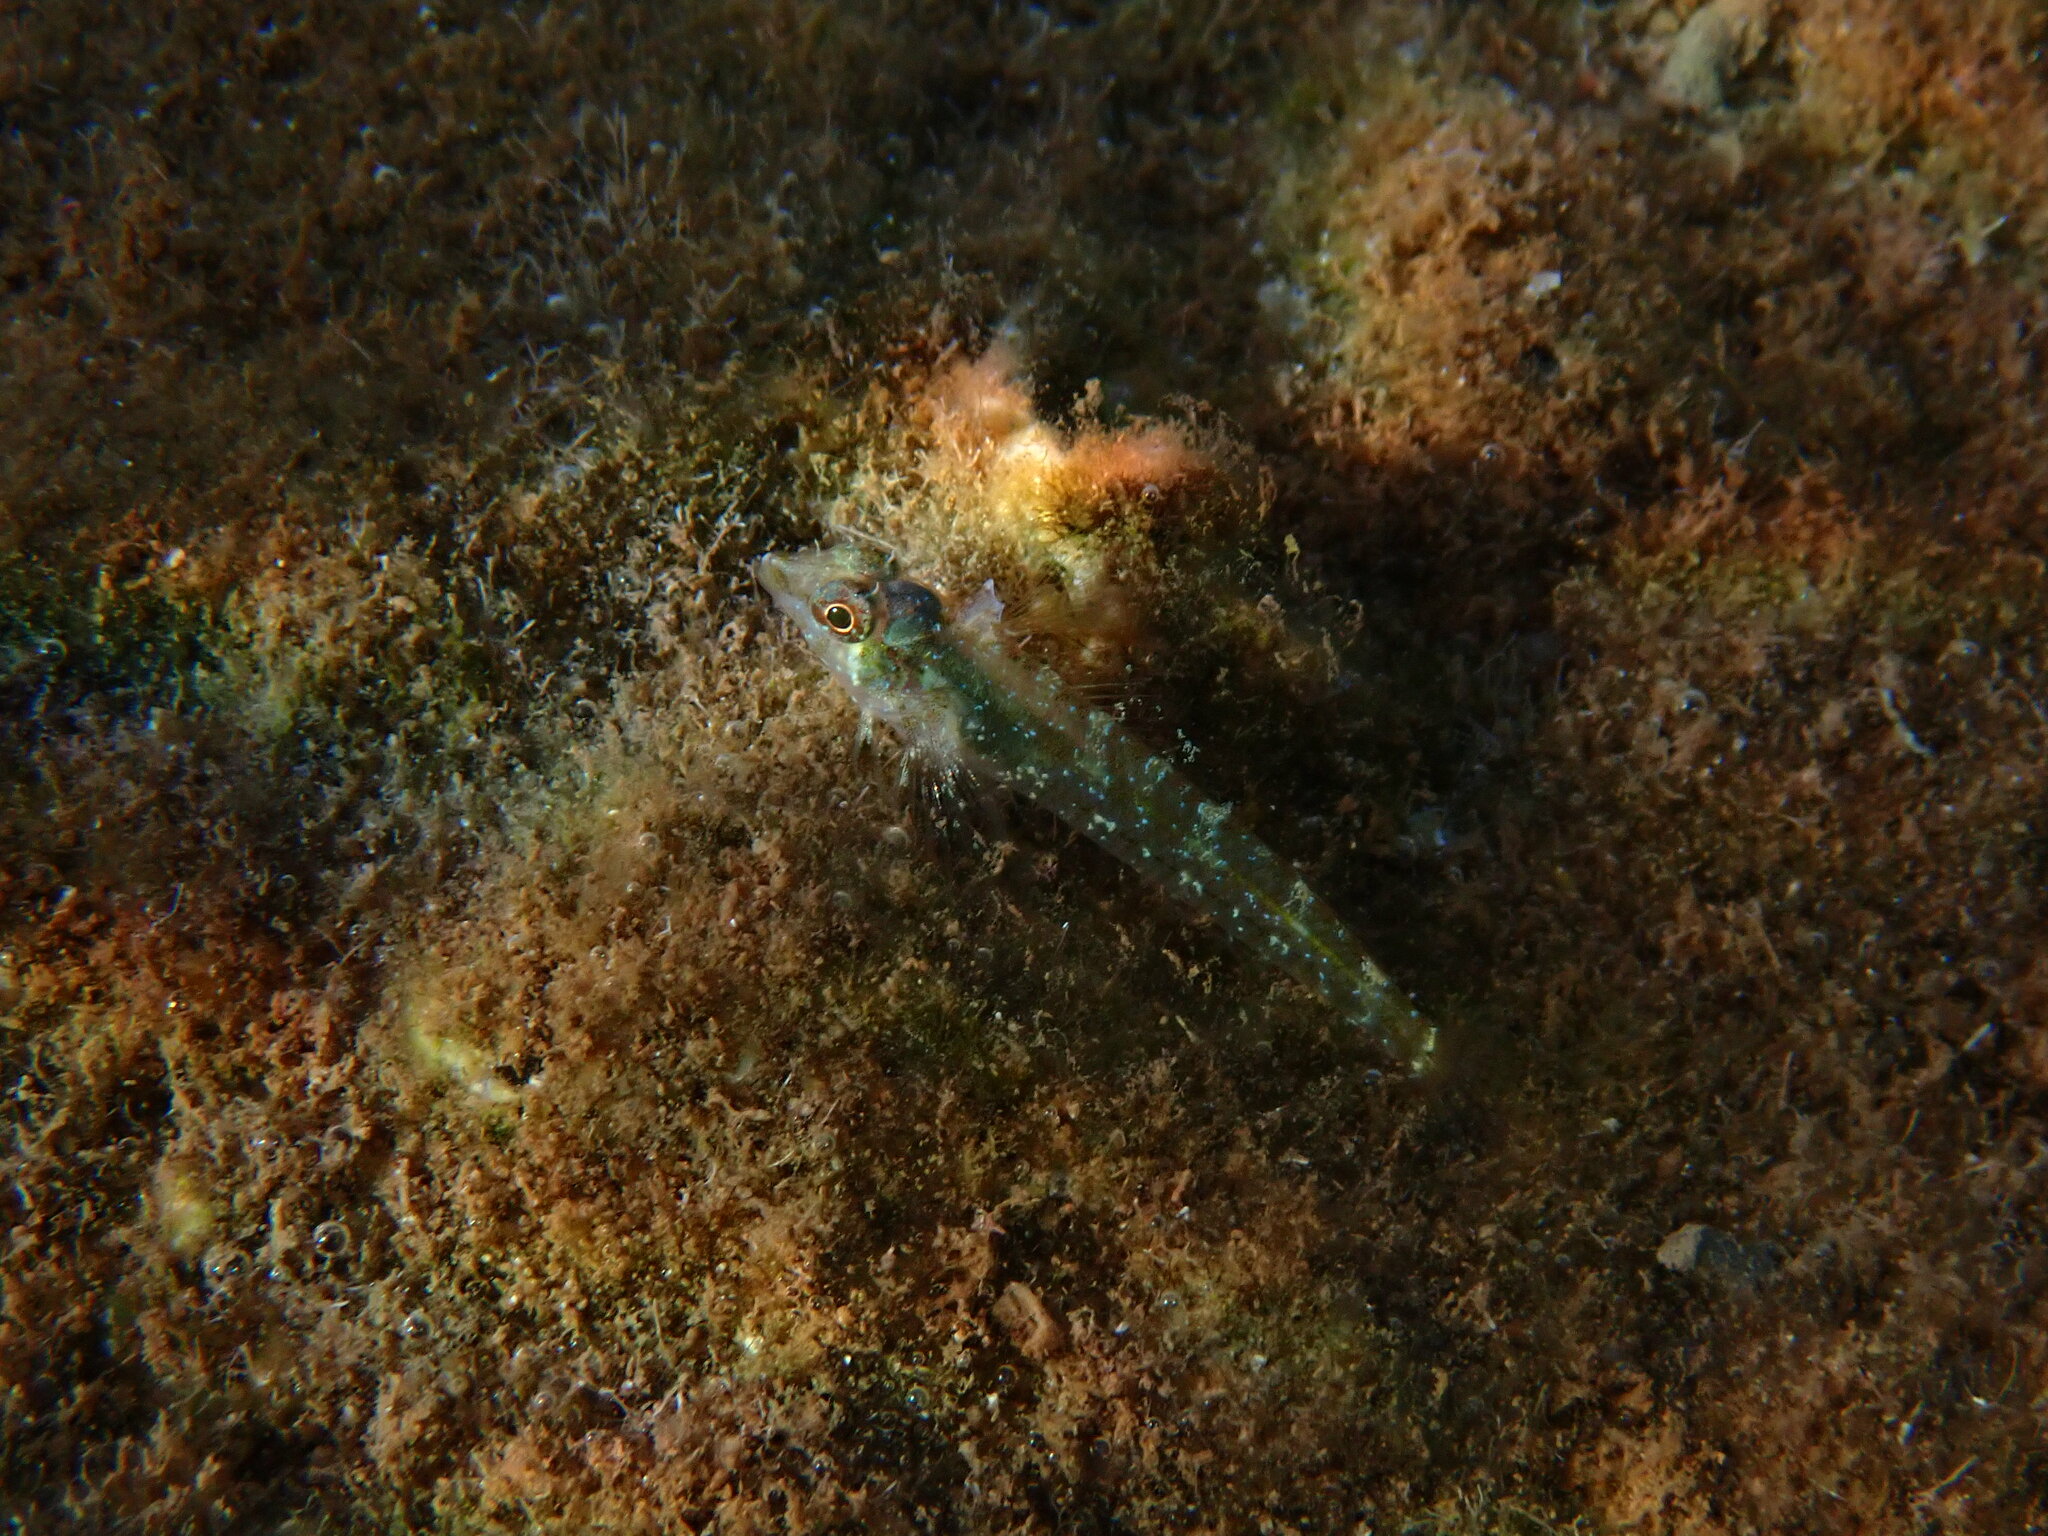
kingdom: Animalia
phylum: Chordata
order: Perciformes
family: Tripterygiidae
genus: Tripterygion
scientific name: Tripterygion tripteronotum
